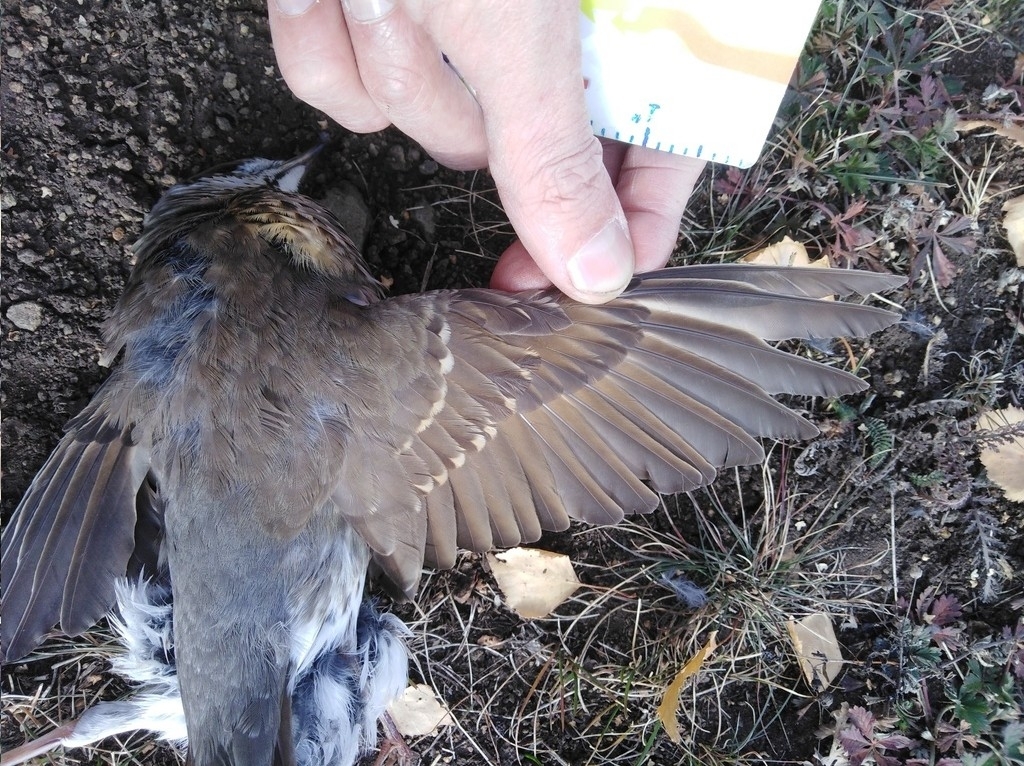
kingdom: Animalia
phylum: Chordata
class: Aves
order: Passeriformes
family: Turdidae
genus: Turdus
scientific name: Turdus philomelos
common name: Song thrush
